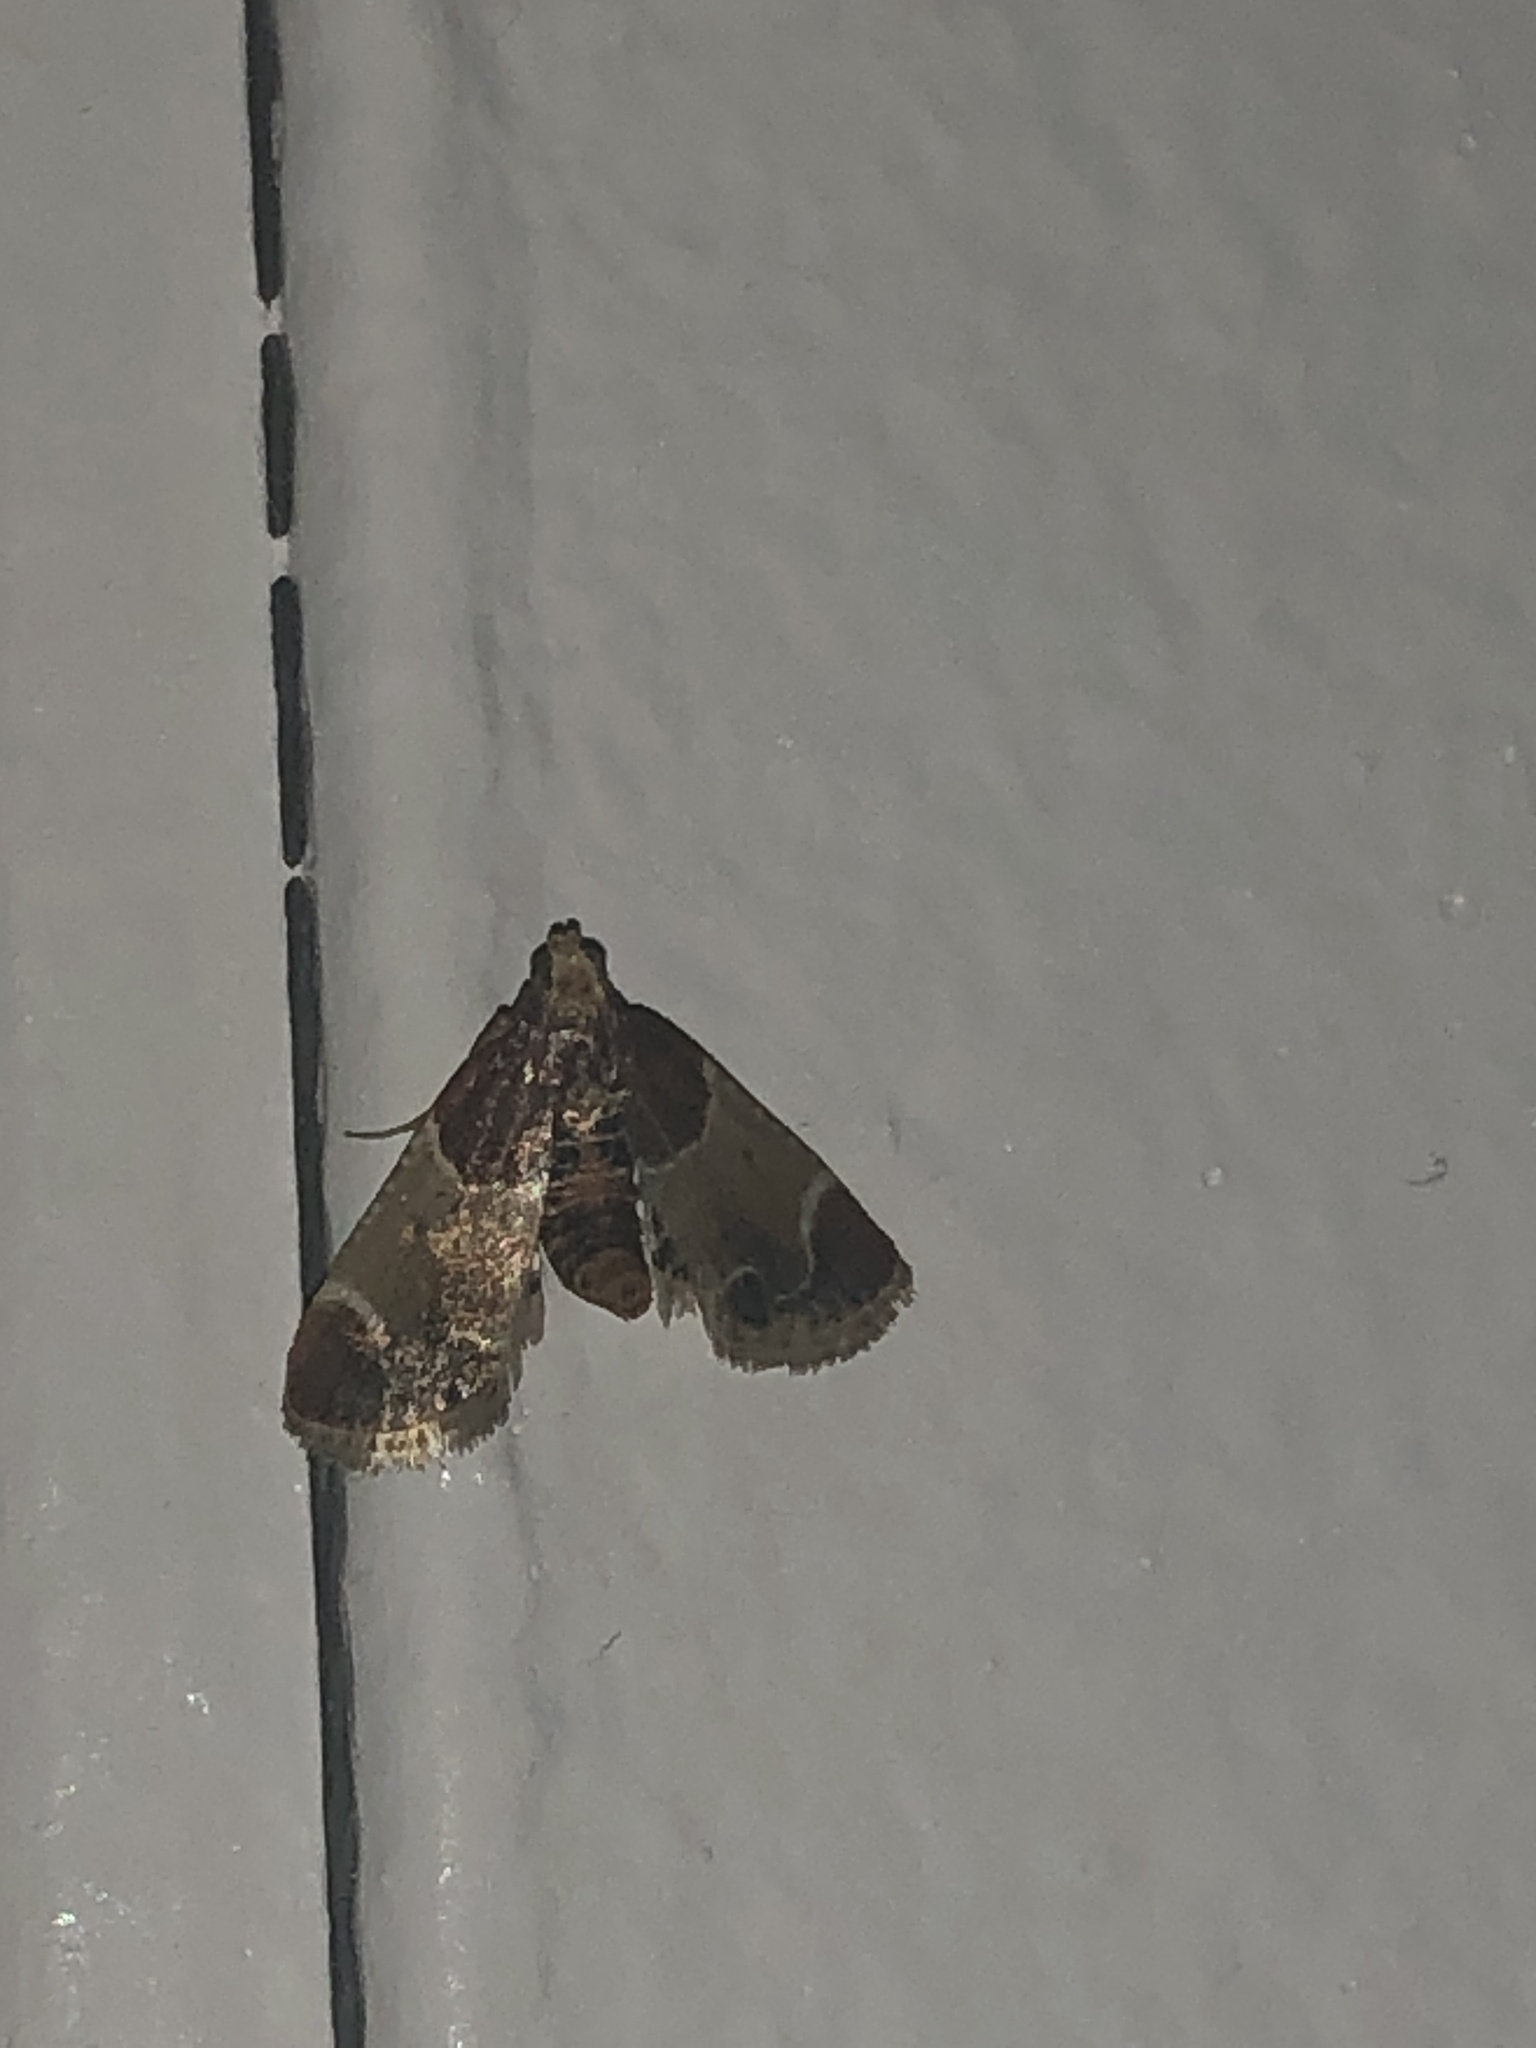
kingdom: Animalia
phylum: Arthropoda
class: Insecta
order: Lepidoptera
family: Pyralidae
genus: Pyralis
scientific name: Pyralis farinalis
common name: Meal moth
